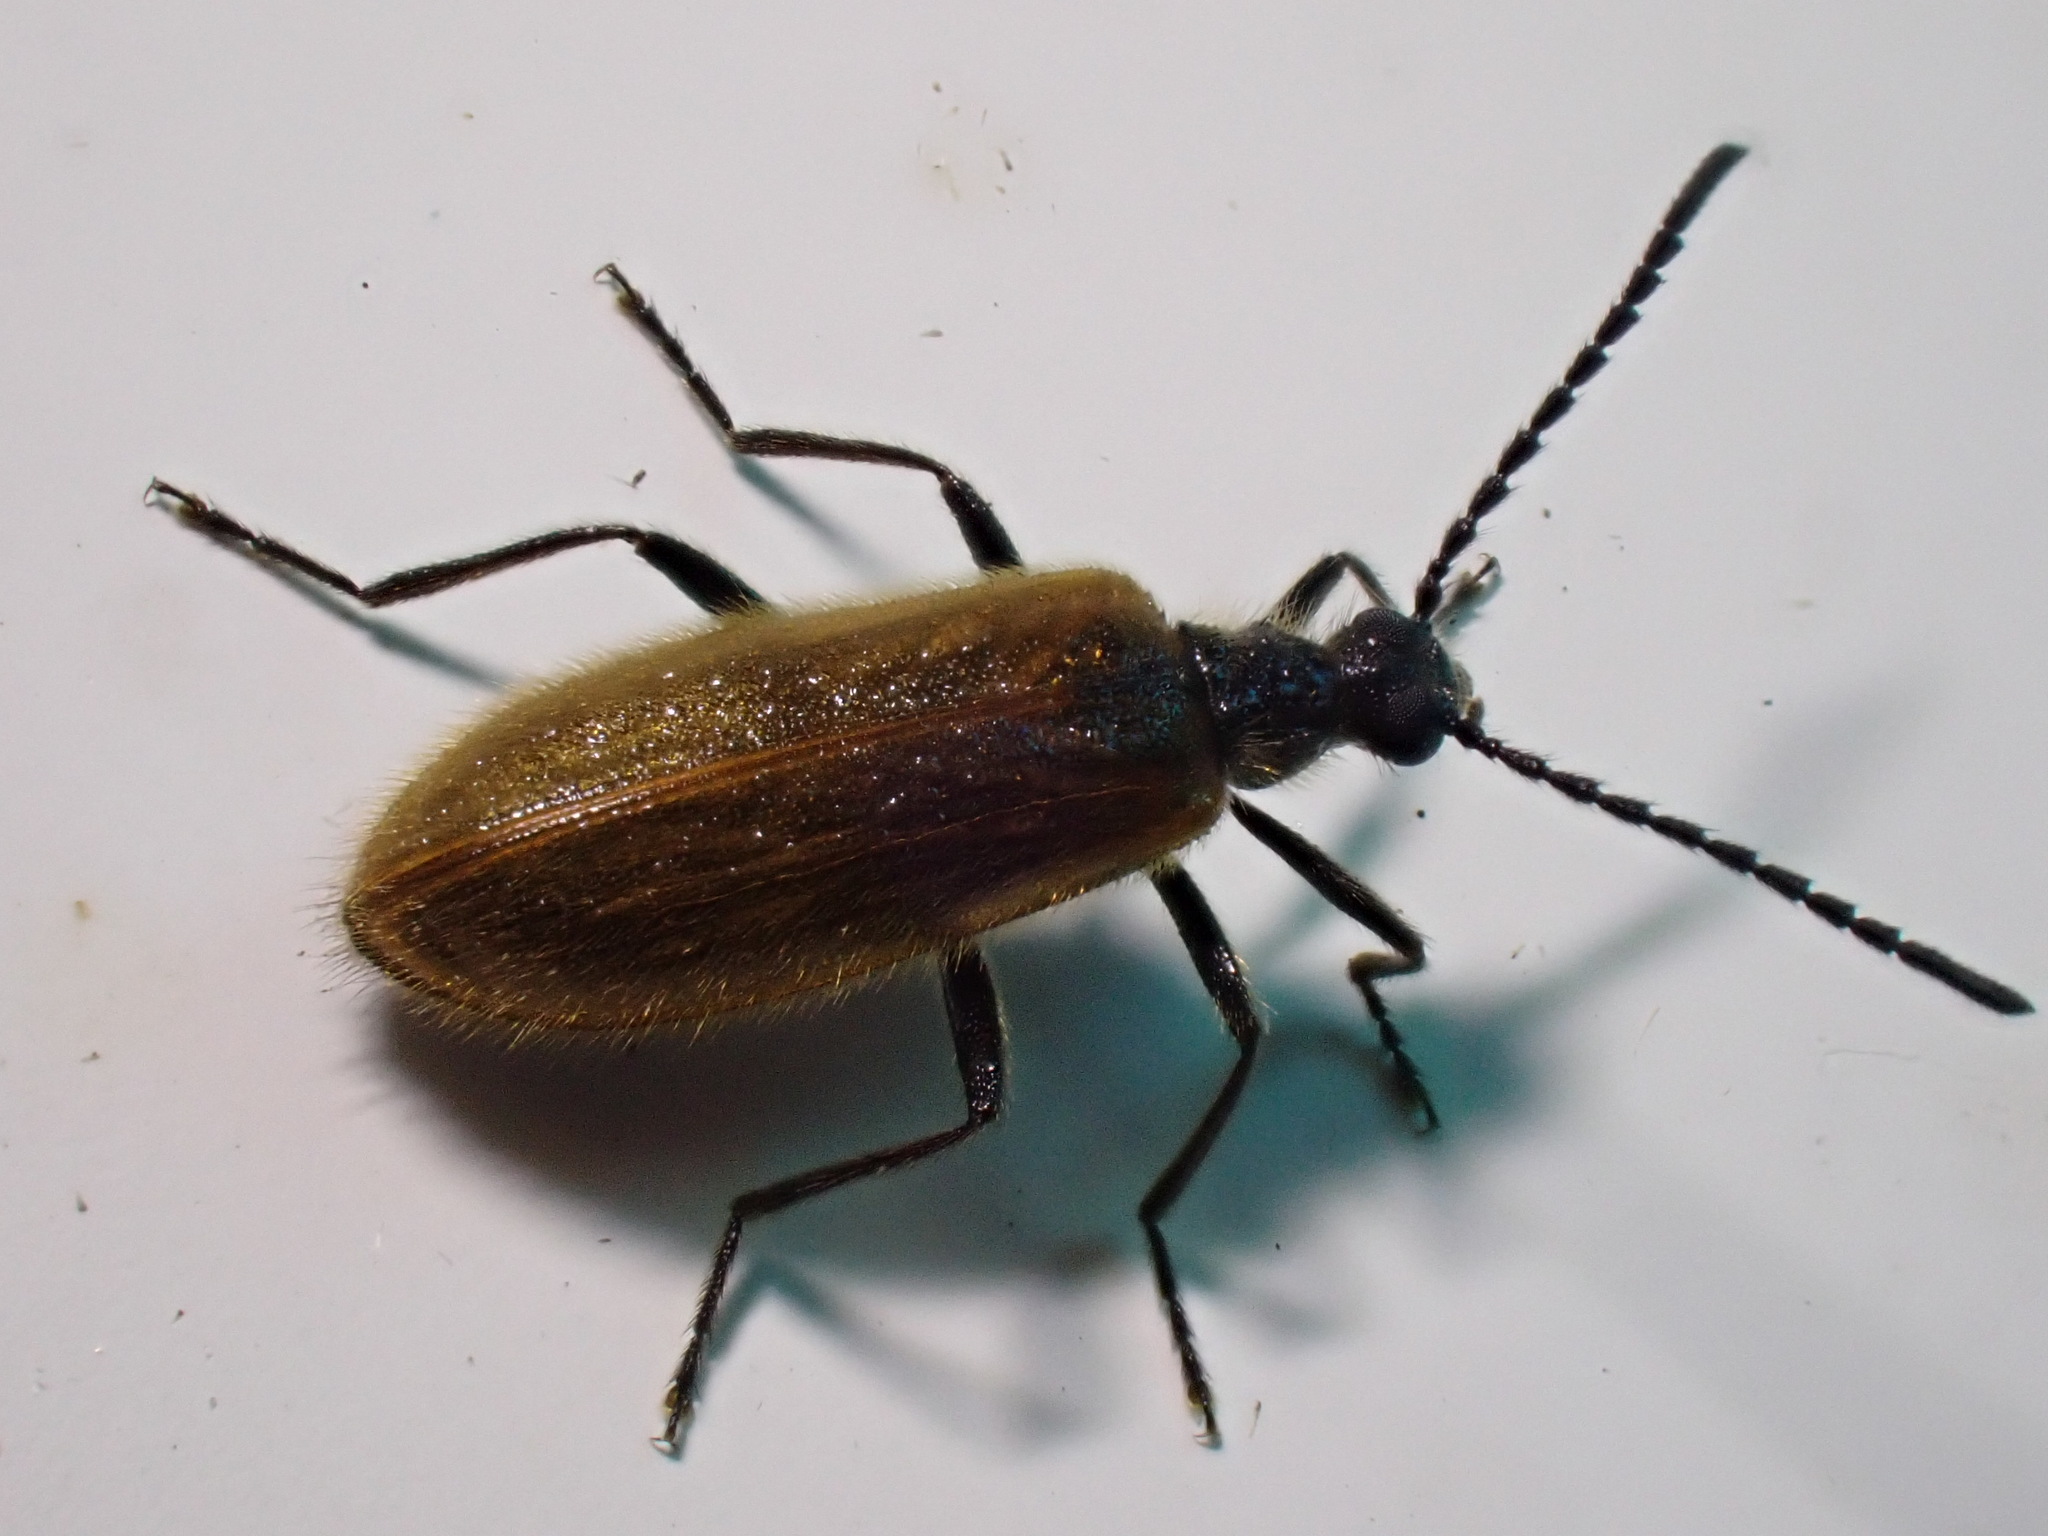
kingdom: Animalia
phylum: Arthropoda
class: Insecta
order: Coleoptera
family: Tenebrionidae
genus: Lagria
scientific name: Lagria hirta
